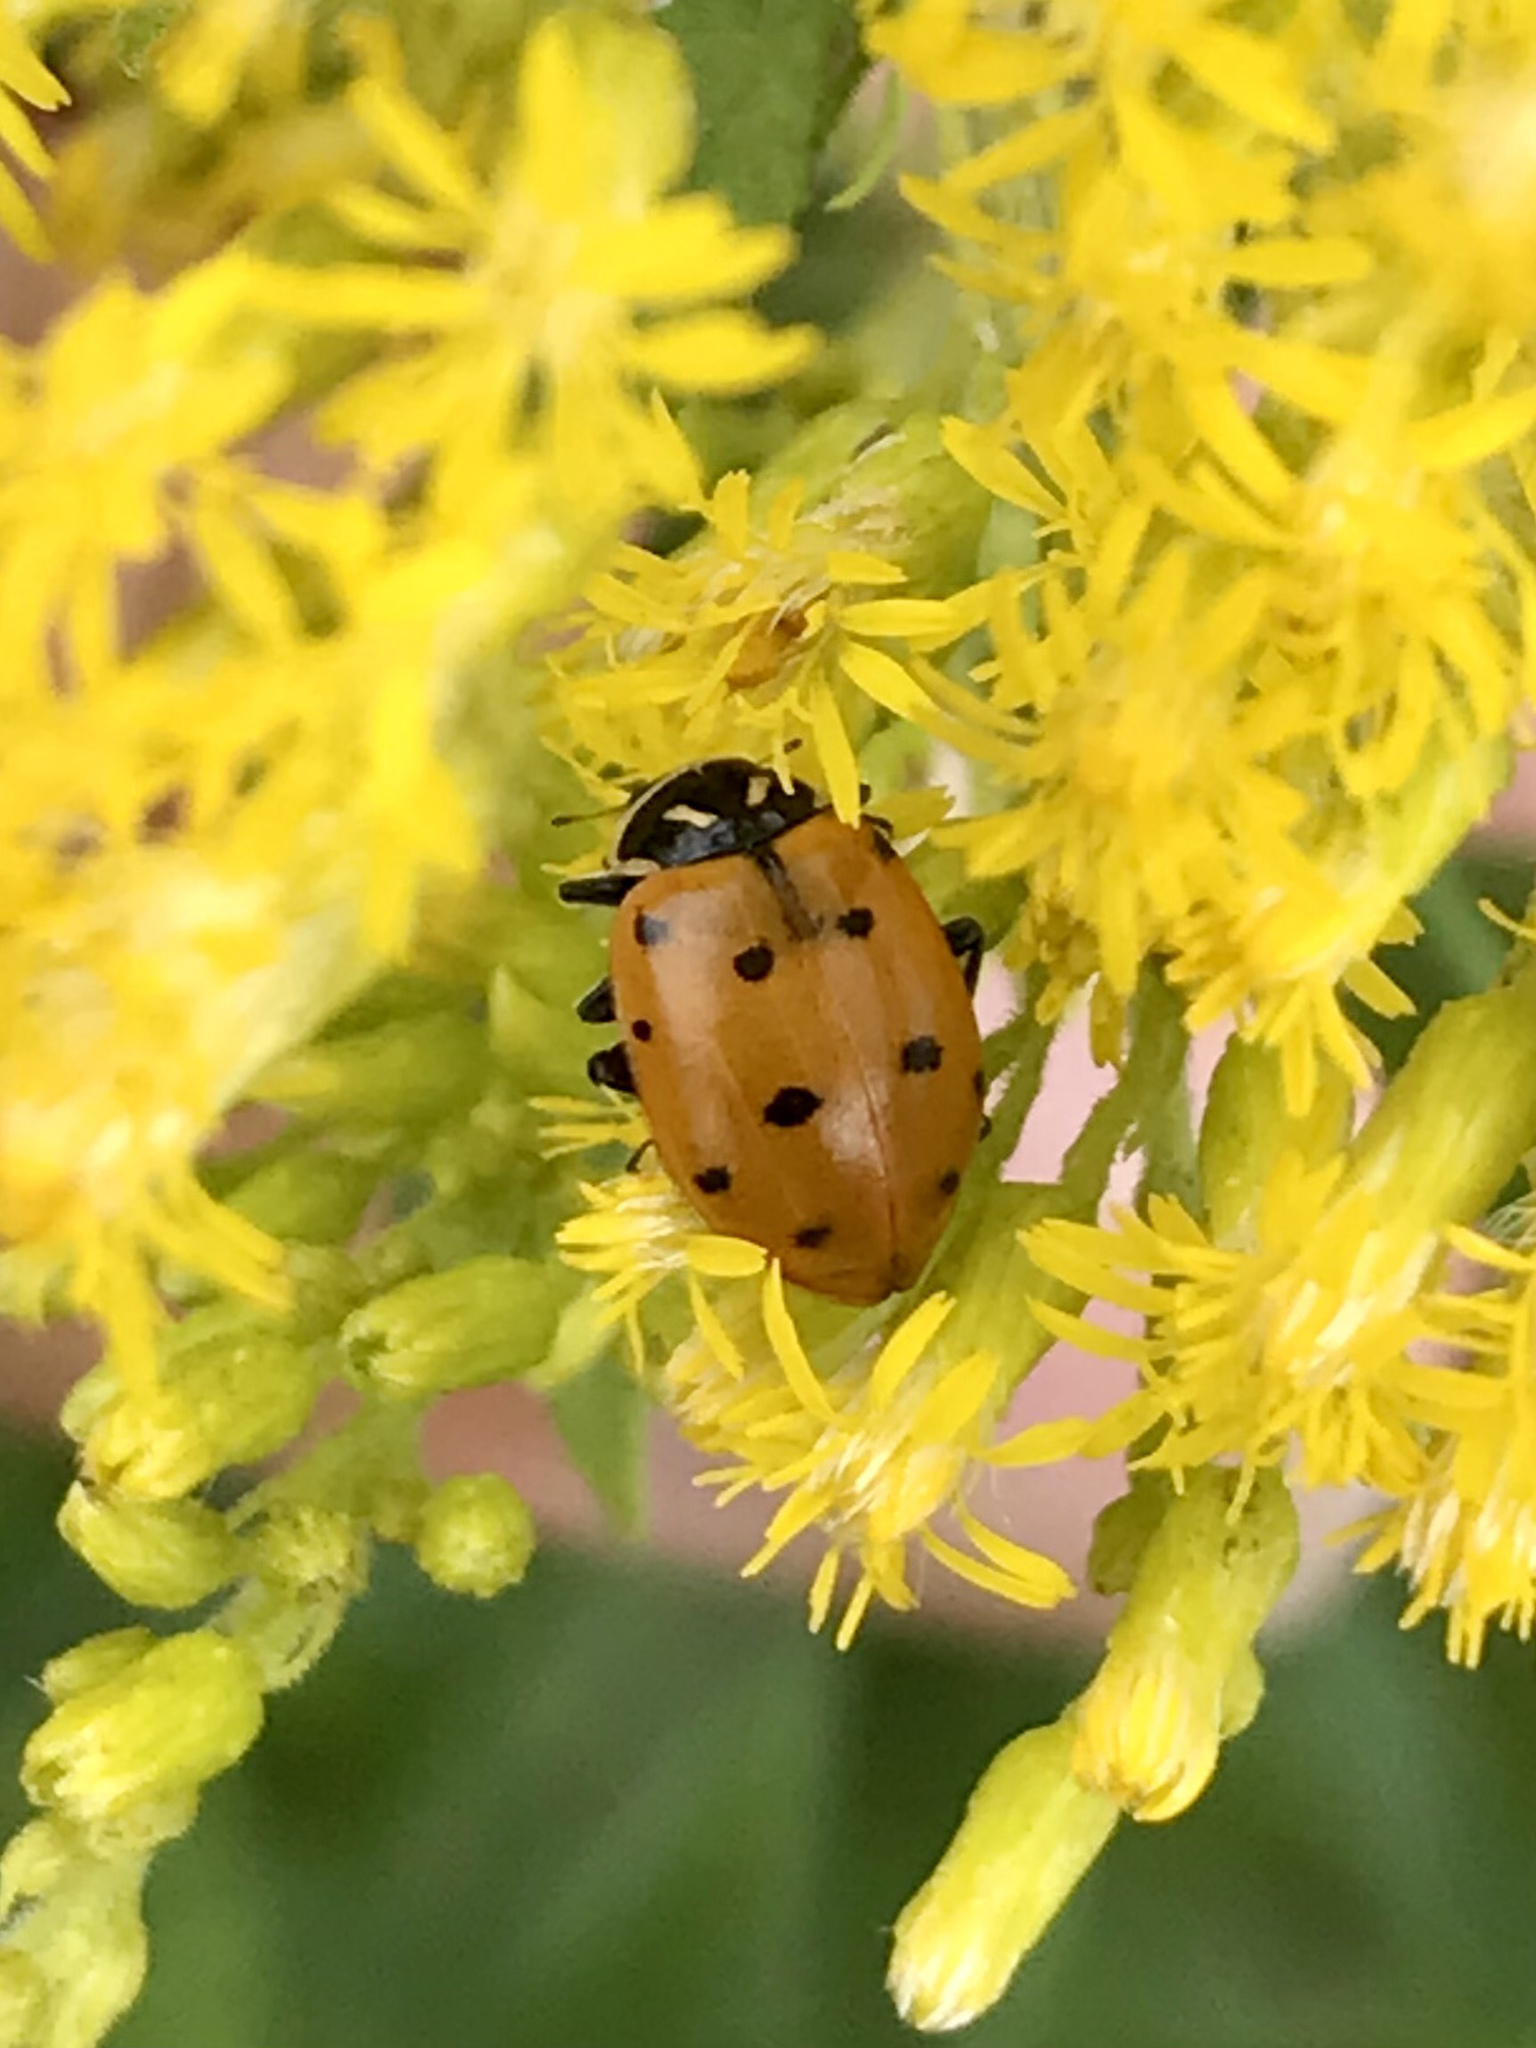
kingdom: Animalia
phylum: Arthropoda
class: Insecta
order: Coleoptera
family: Coccinellidae
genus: Hippodamia
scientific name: Hippodamia convergens
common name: Convergent lady beetle
